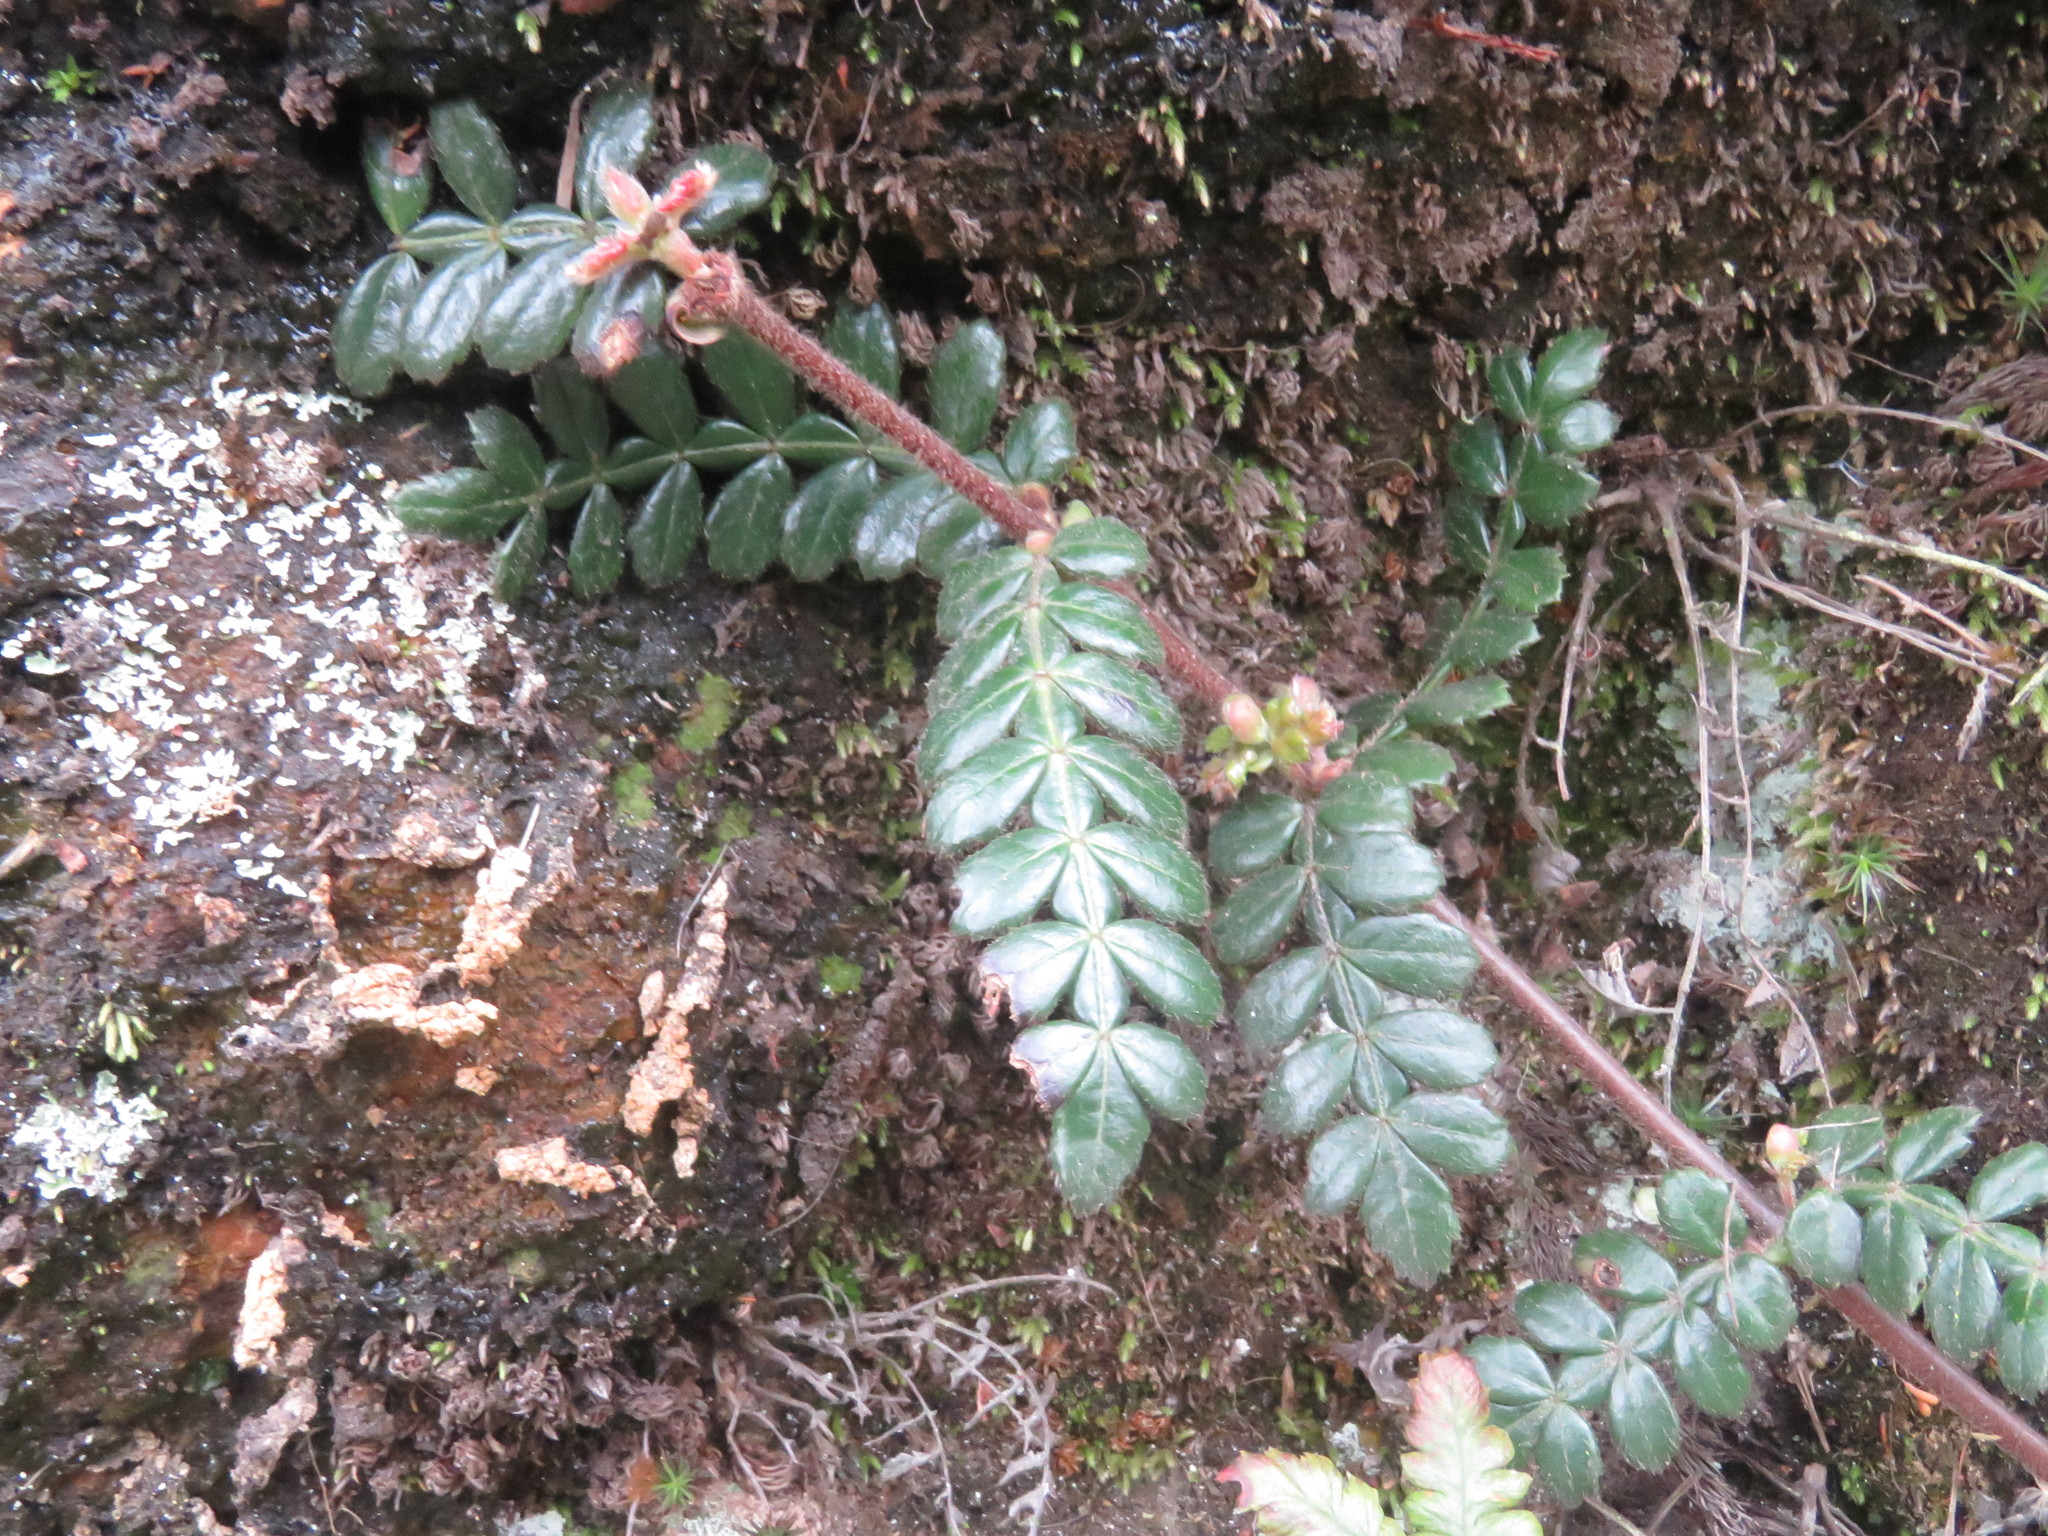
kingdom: Plantae
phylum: Tracheophyta
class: Magnoliopsida
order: Oxalidales
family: Cunoniaceae
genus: Weinmannia
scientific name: Weinmannia tomentosa
